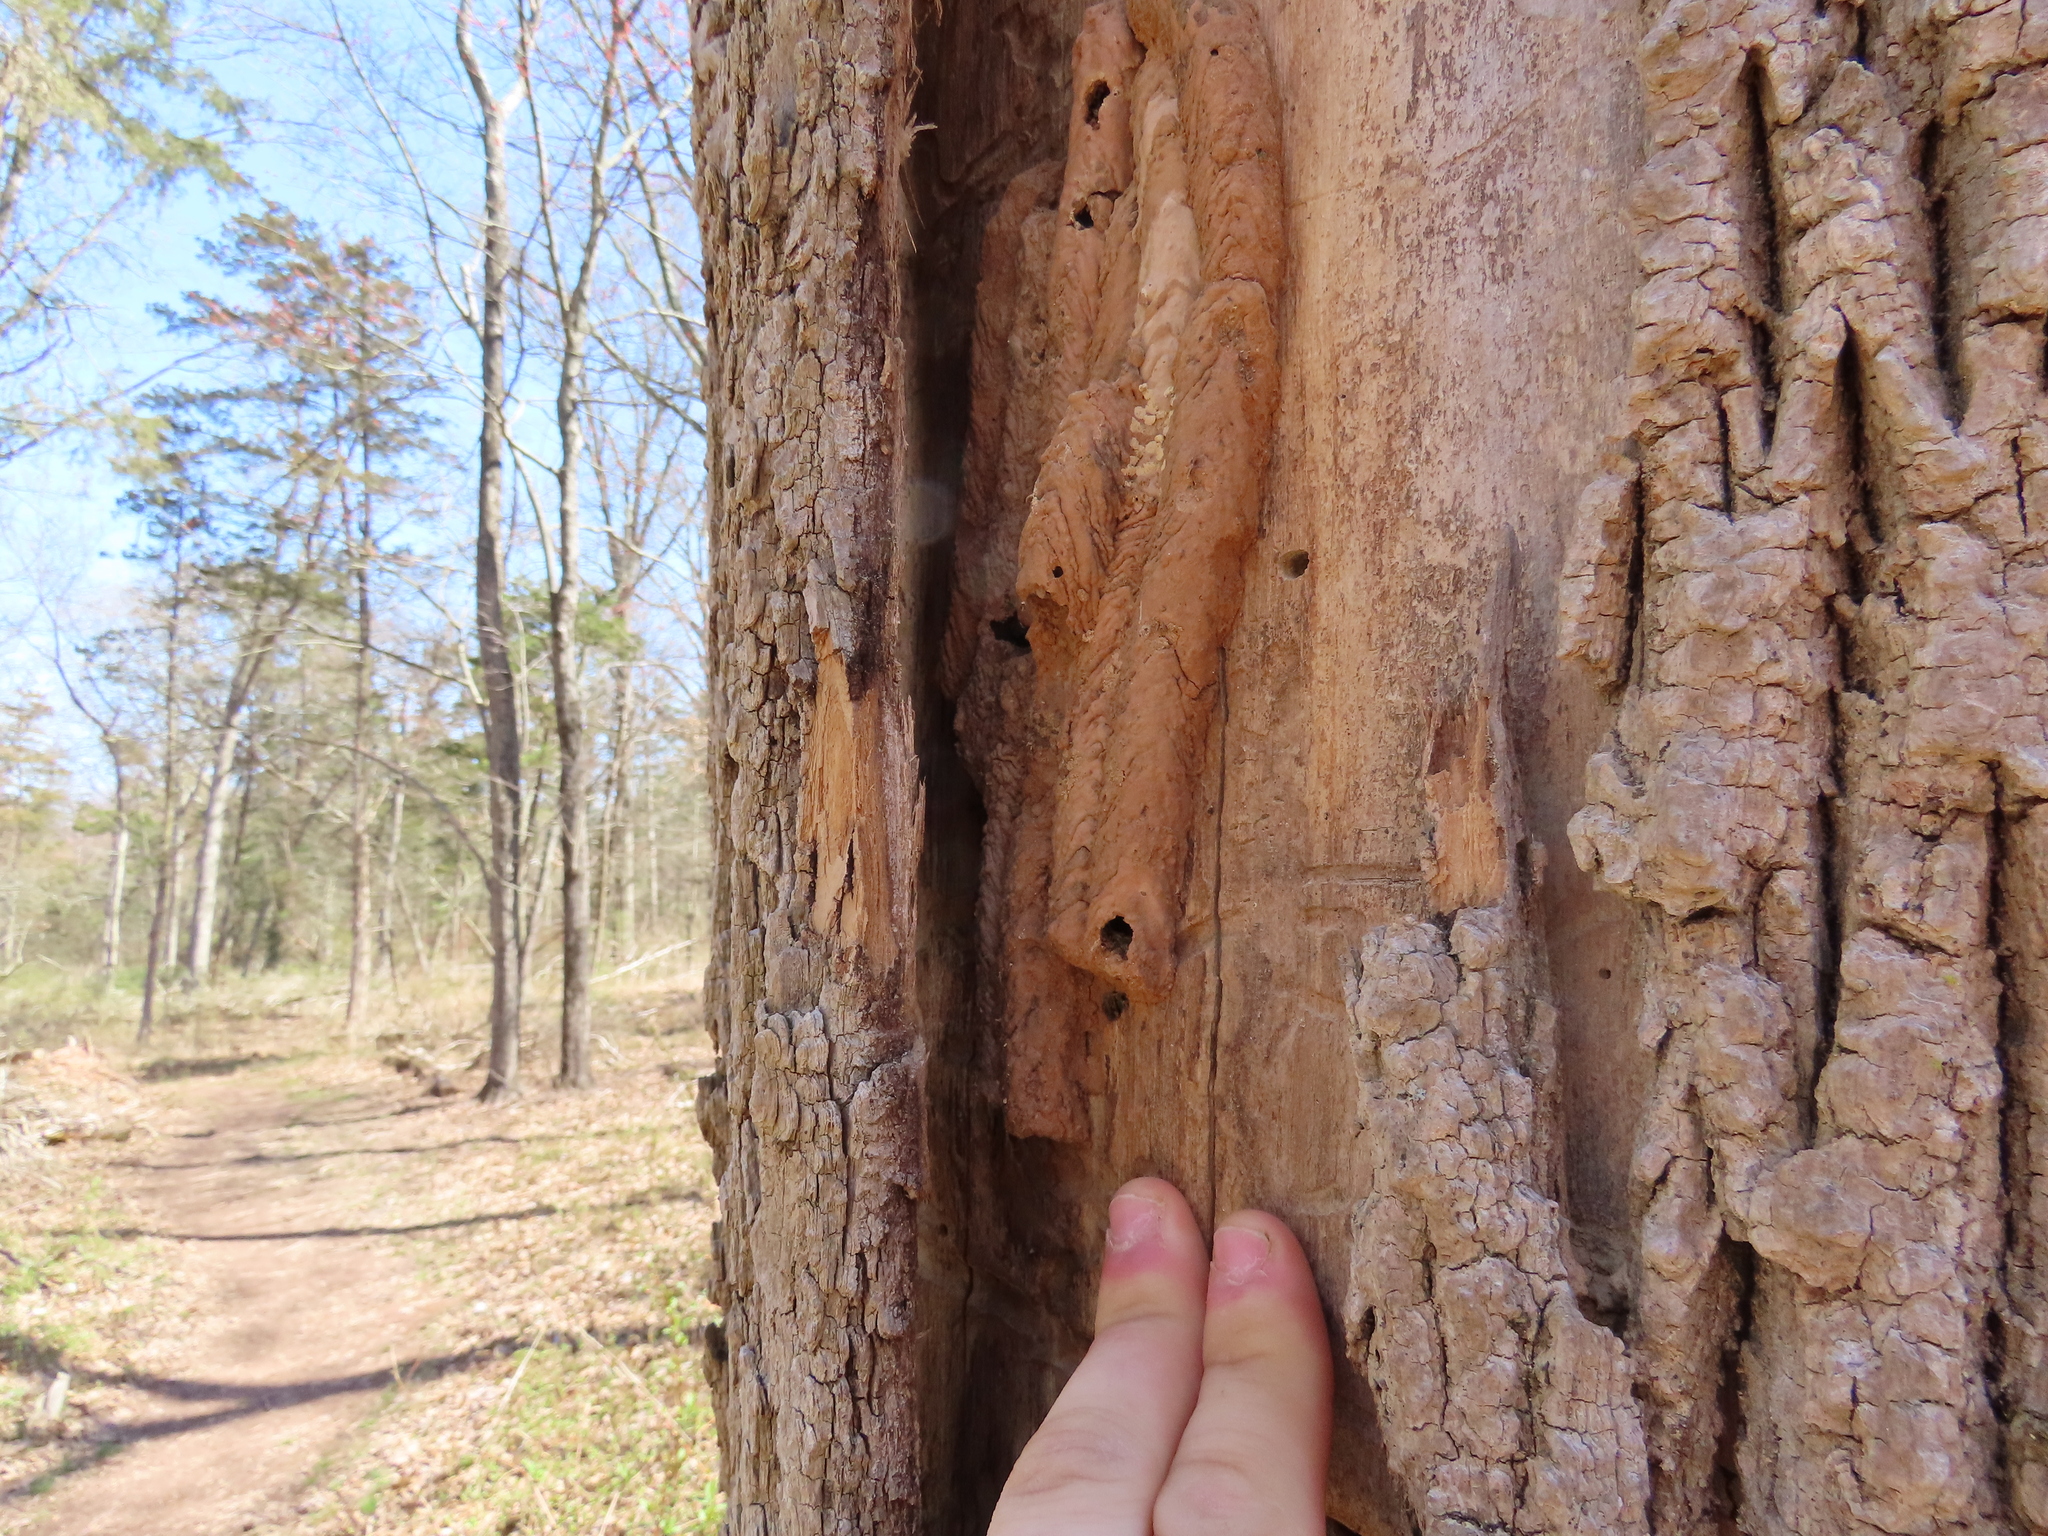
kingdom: Animalia
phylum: Arthropoda
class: Insecta
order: Hymenoptera
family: Crabronidae
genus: Trypoxylon
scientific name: Trypoxylon politum
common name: Organ-pipe mud-dauber wasp
